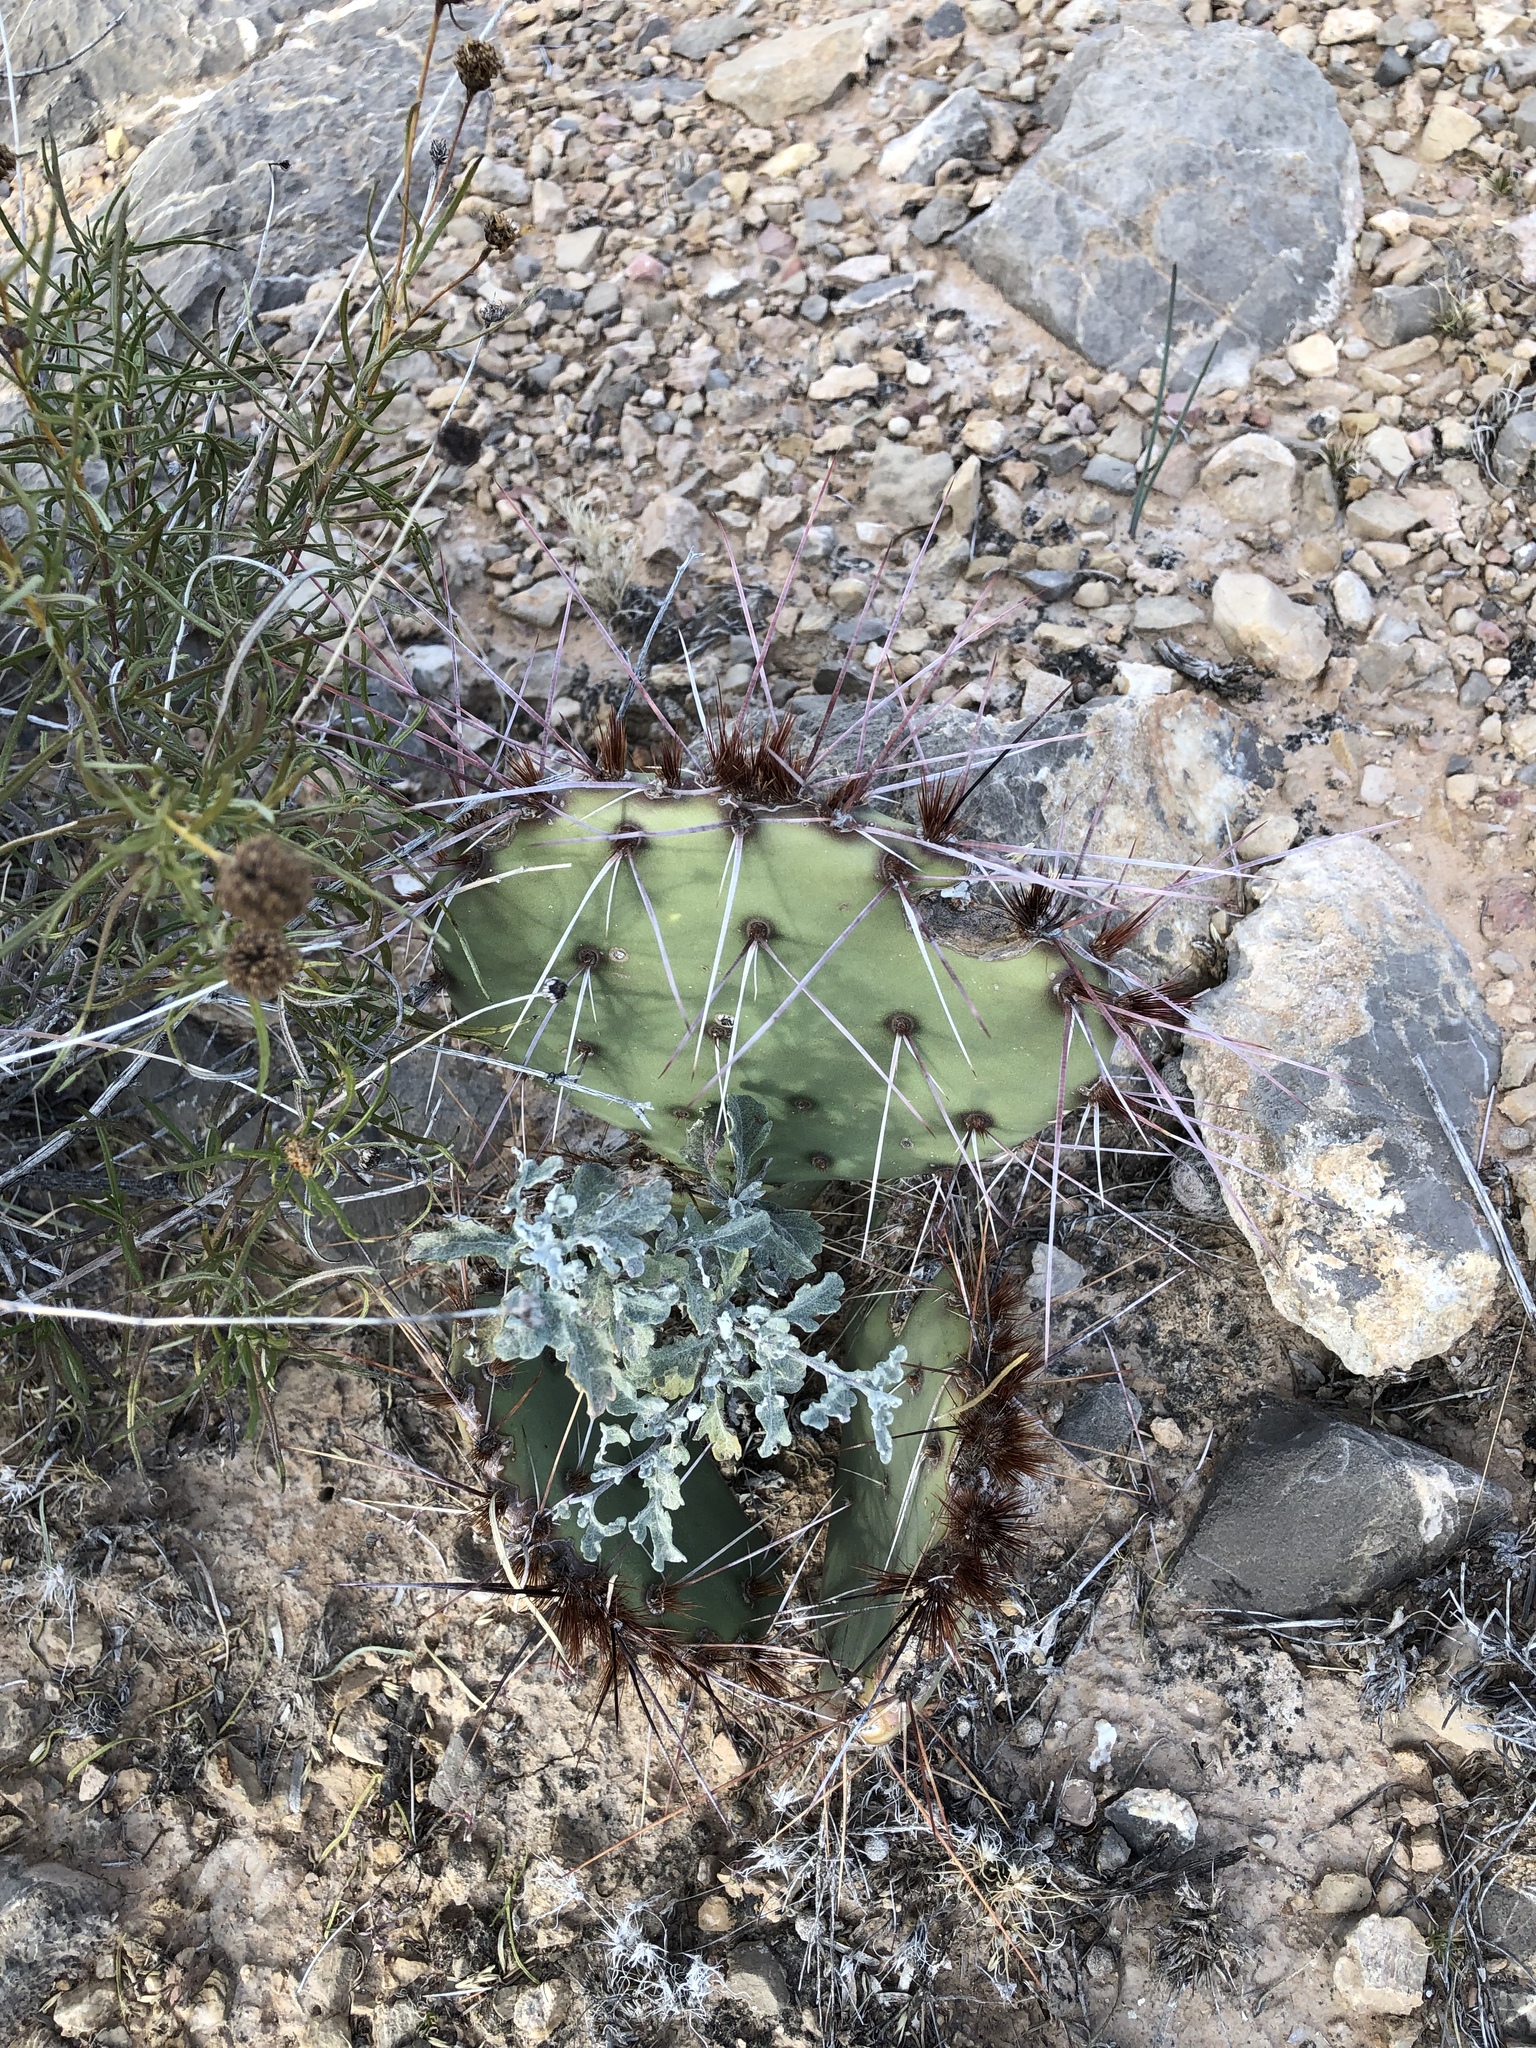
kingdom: Plantae
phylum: Tracheophyta
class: Magnoliopsida
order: Caryophyllales
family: Cactaceae
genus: Opuntia
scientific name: Opuntia phaeacantha
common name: New mexico prickly-pear
